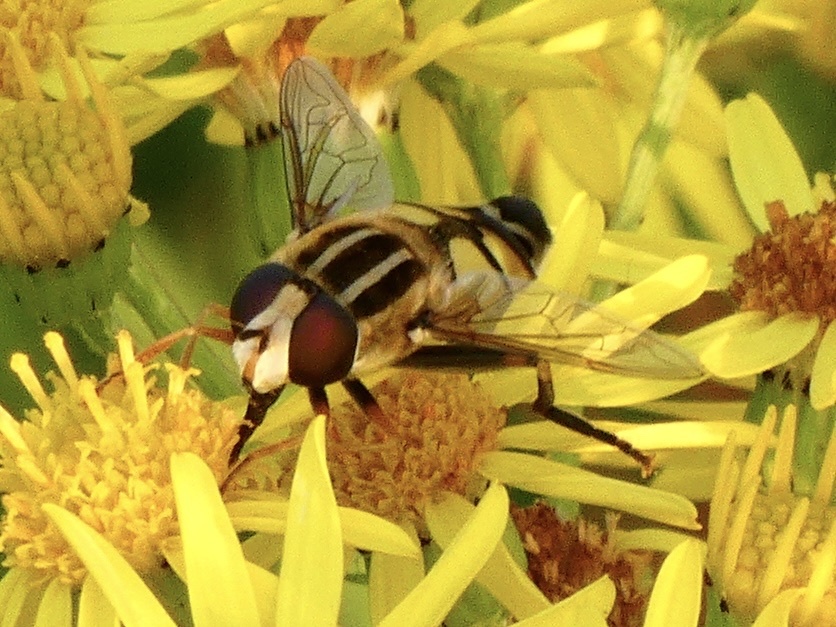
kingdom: Animalia
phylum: Arthropoda
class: Insecta
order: Diptera
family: Syrphidae
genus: Helophilus
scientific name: Helophilus trivittatus
